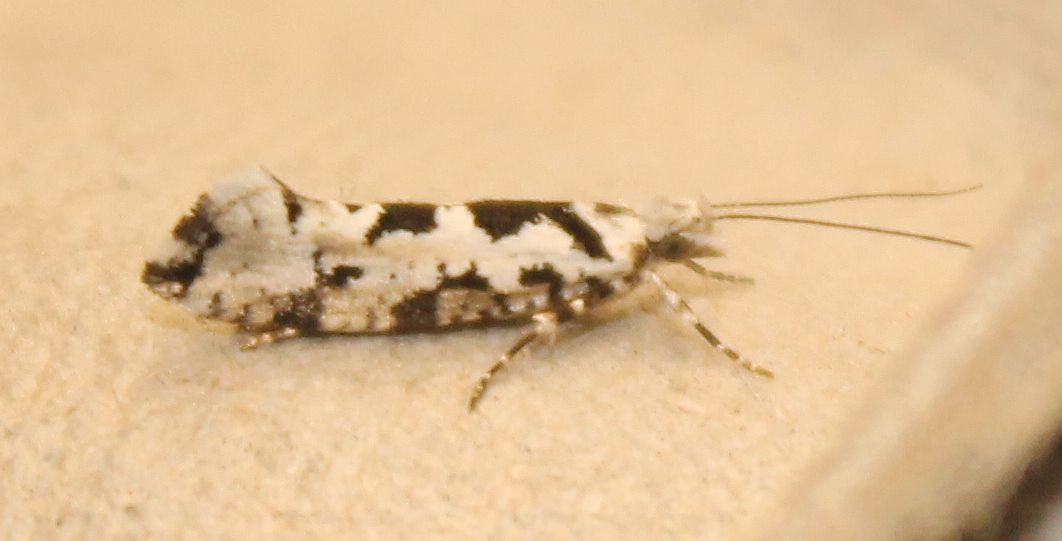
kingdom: Animalia
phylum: Arthropoda
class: Insecta
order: Lepidoptera
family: Plutellidae
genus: Ypsolophus
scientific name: Ypsolophus sequella
